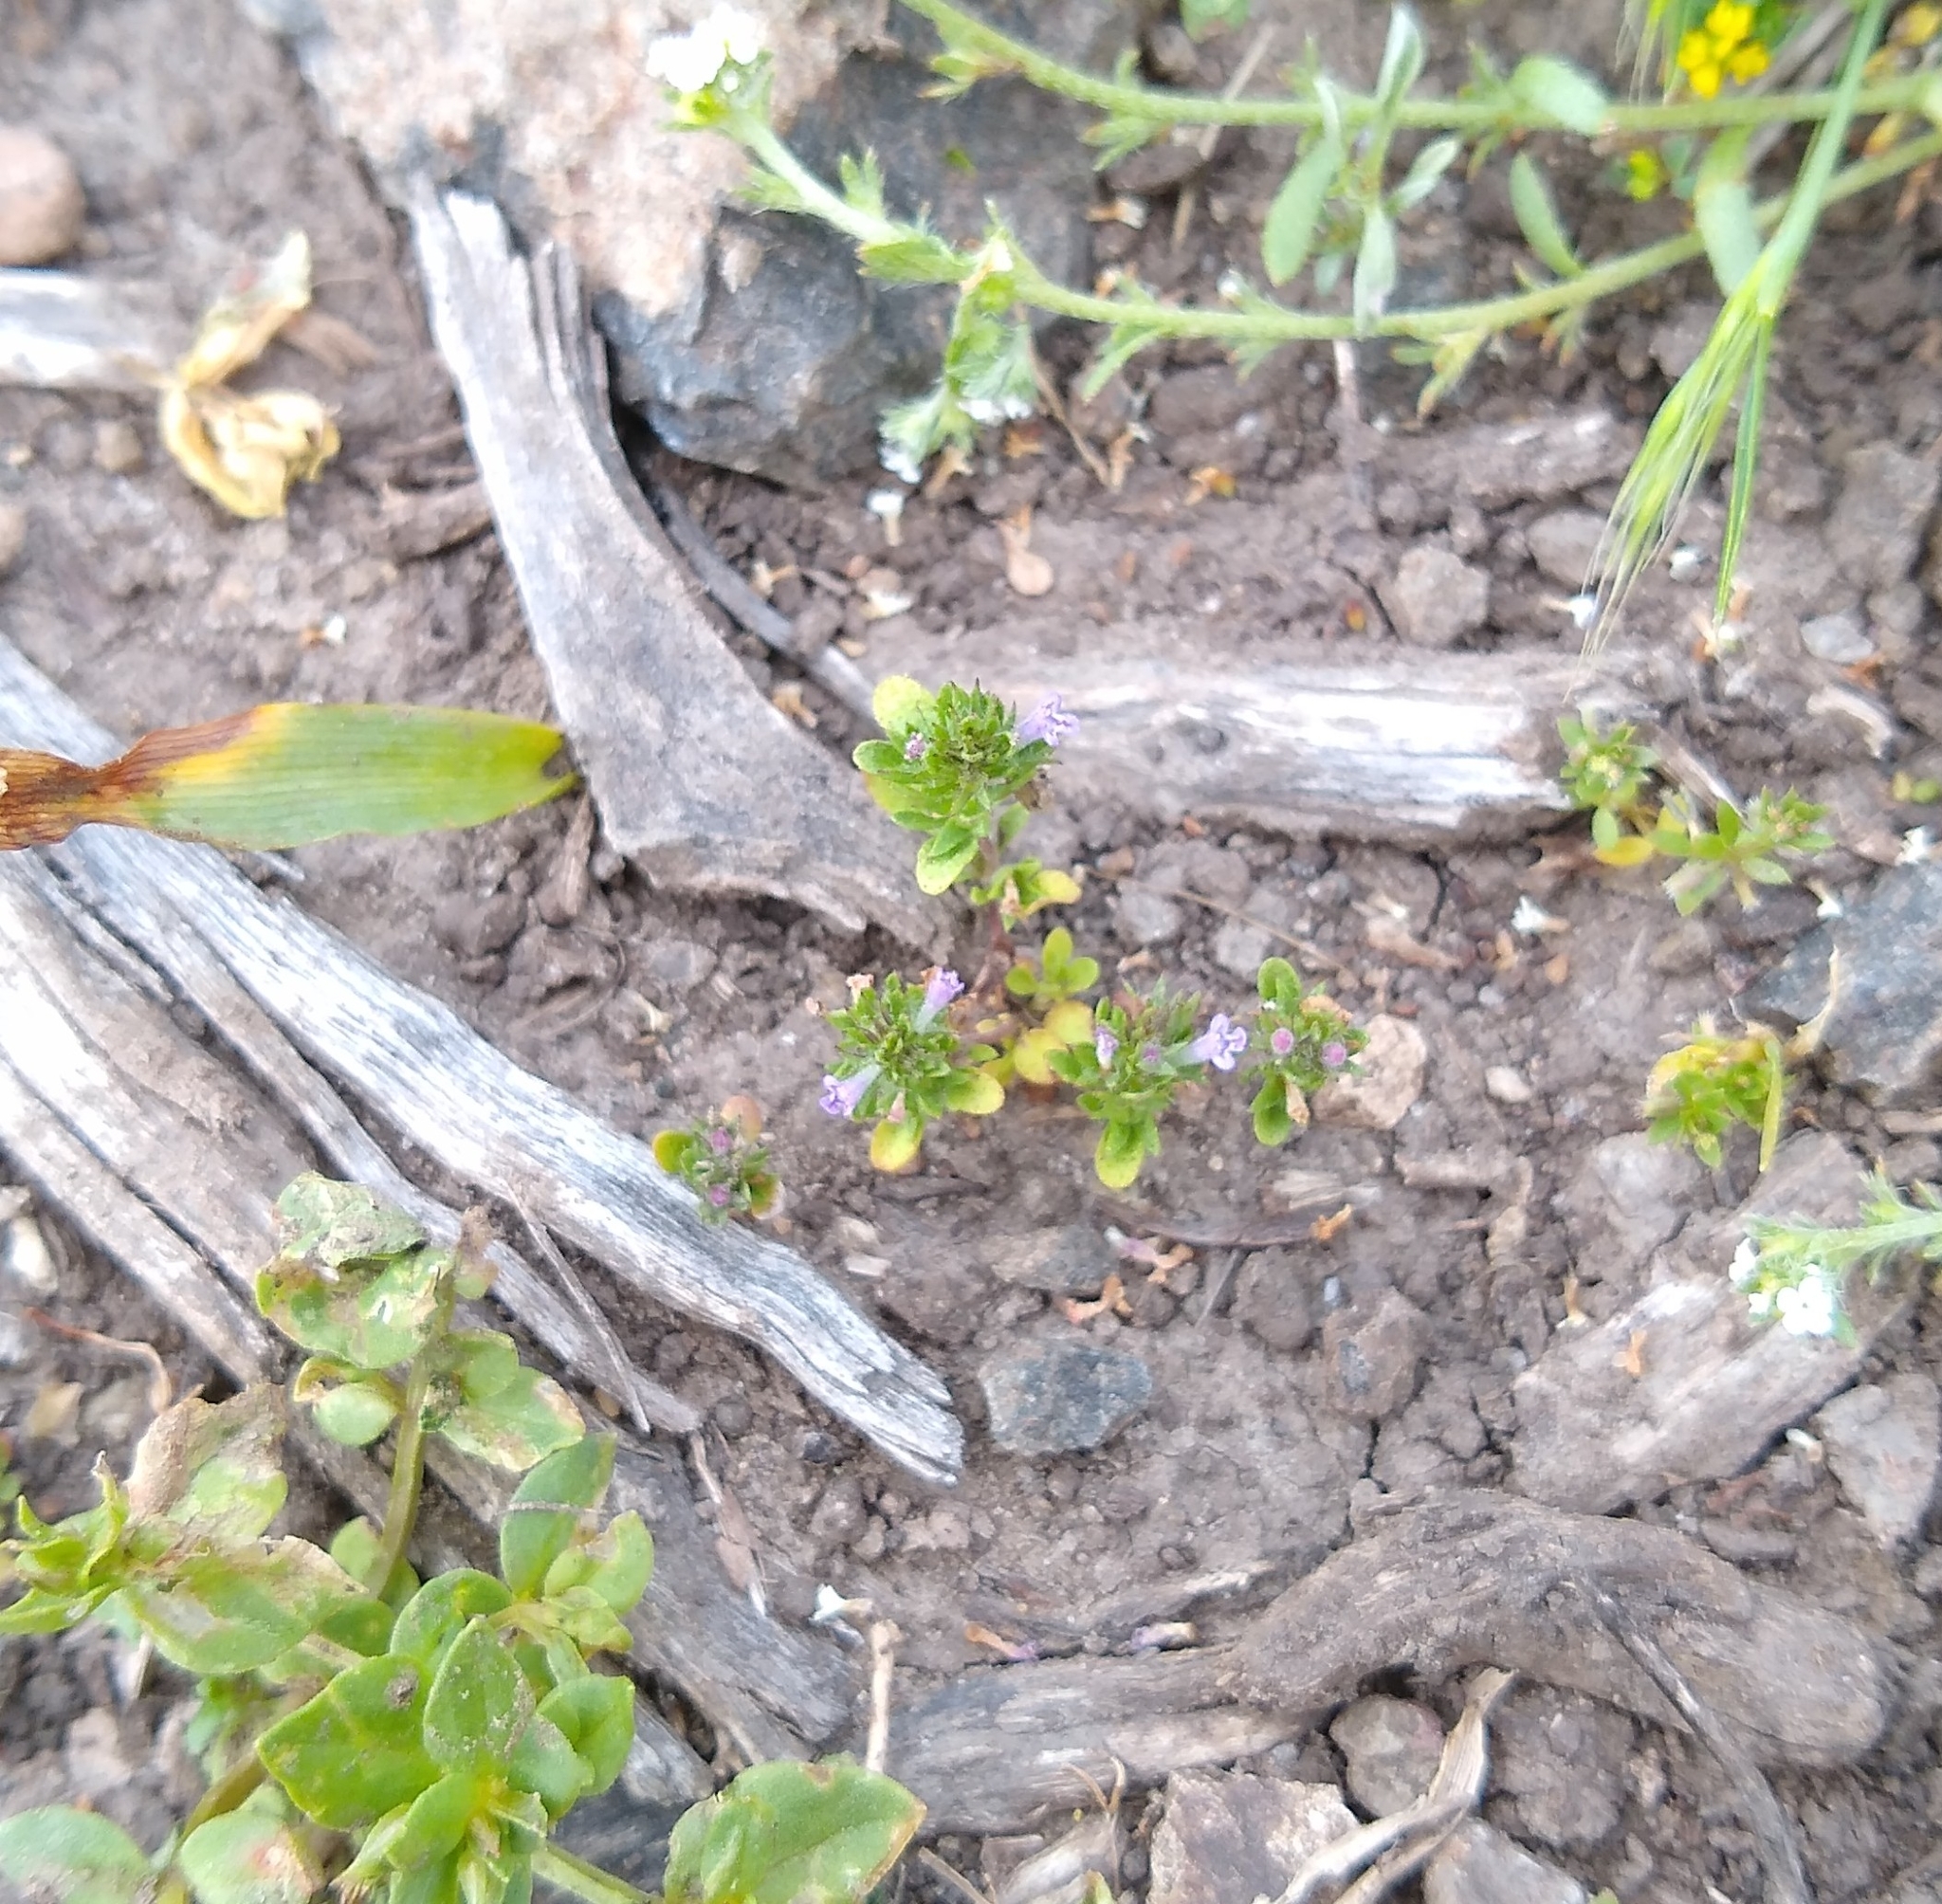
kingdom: Plantae
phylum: Tracheophyta
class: Magnoliopsida
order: Lamiales
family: Lamiaceae
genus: Pogogyne
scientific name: Pogogyne serpylloides
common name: Thymeleaf mesamint
